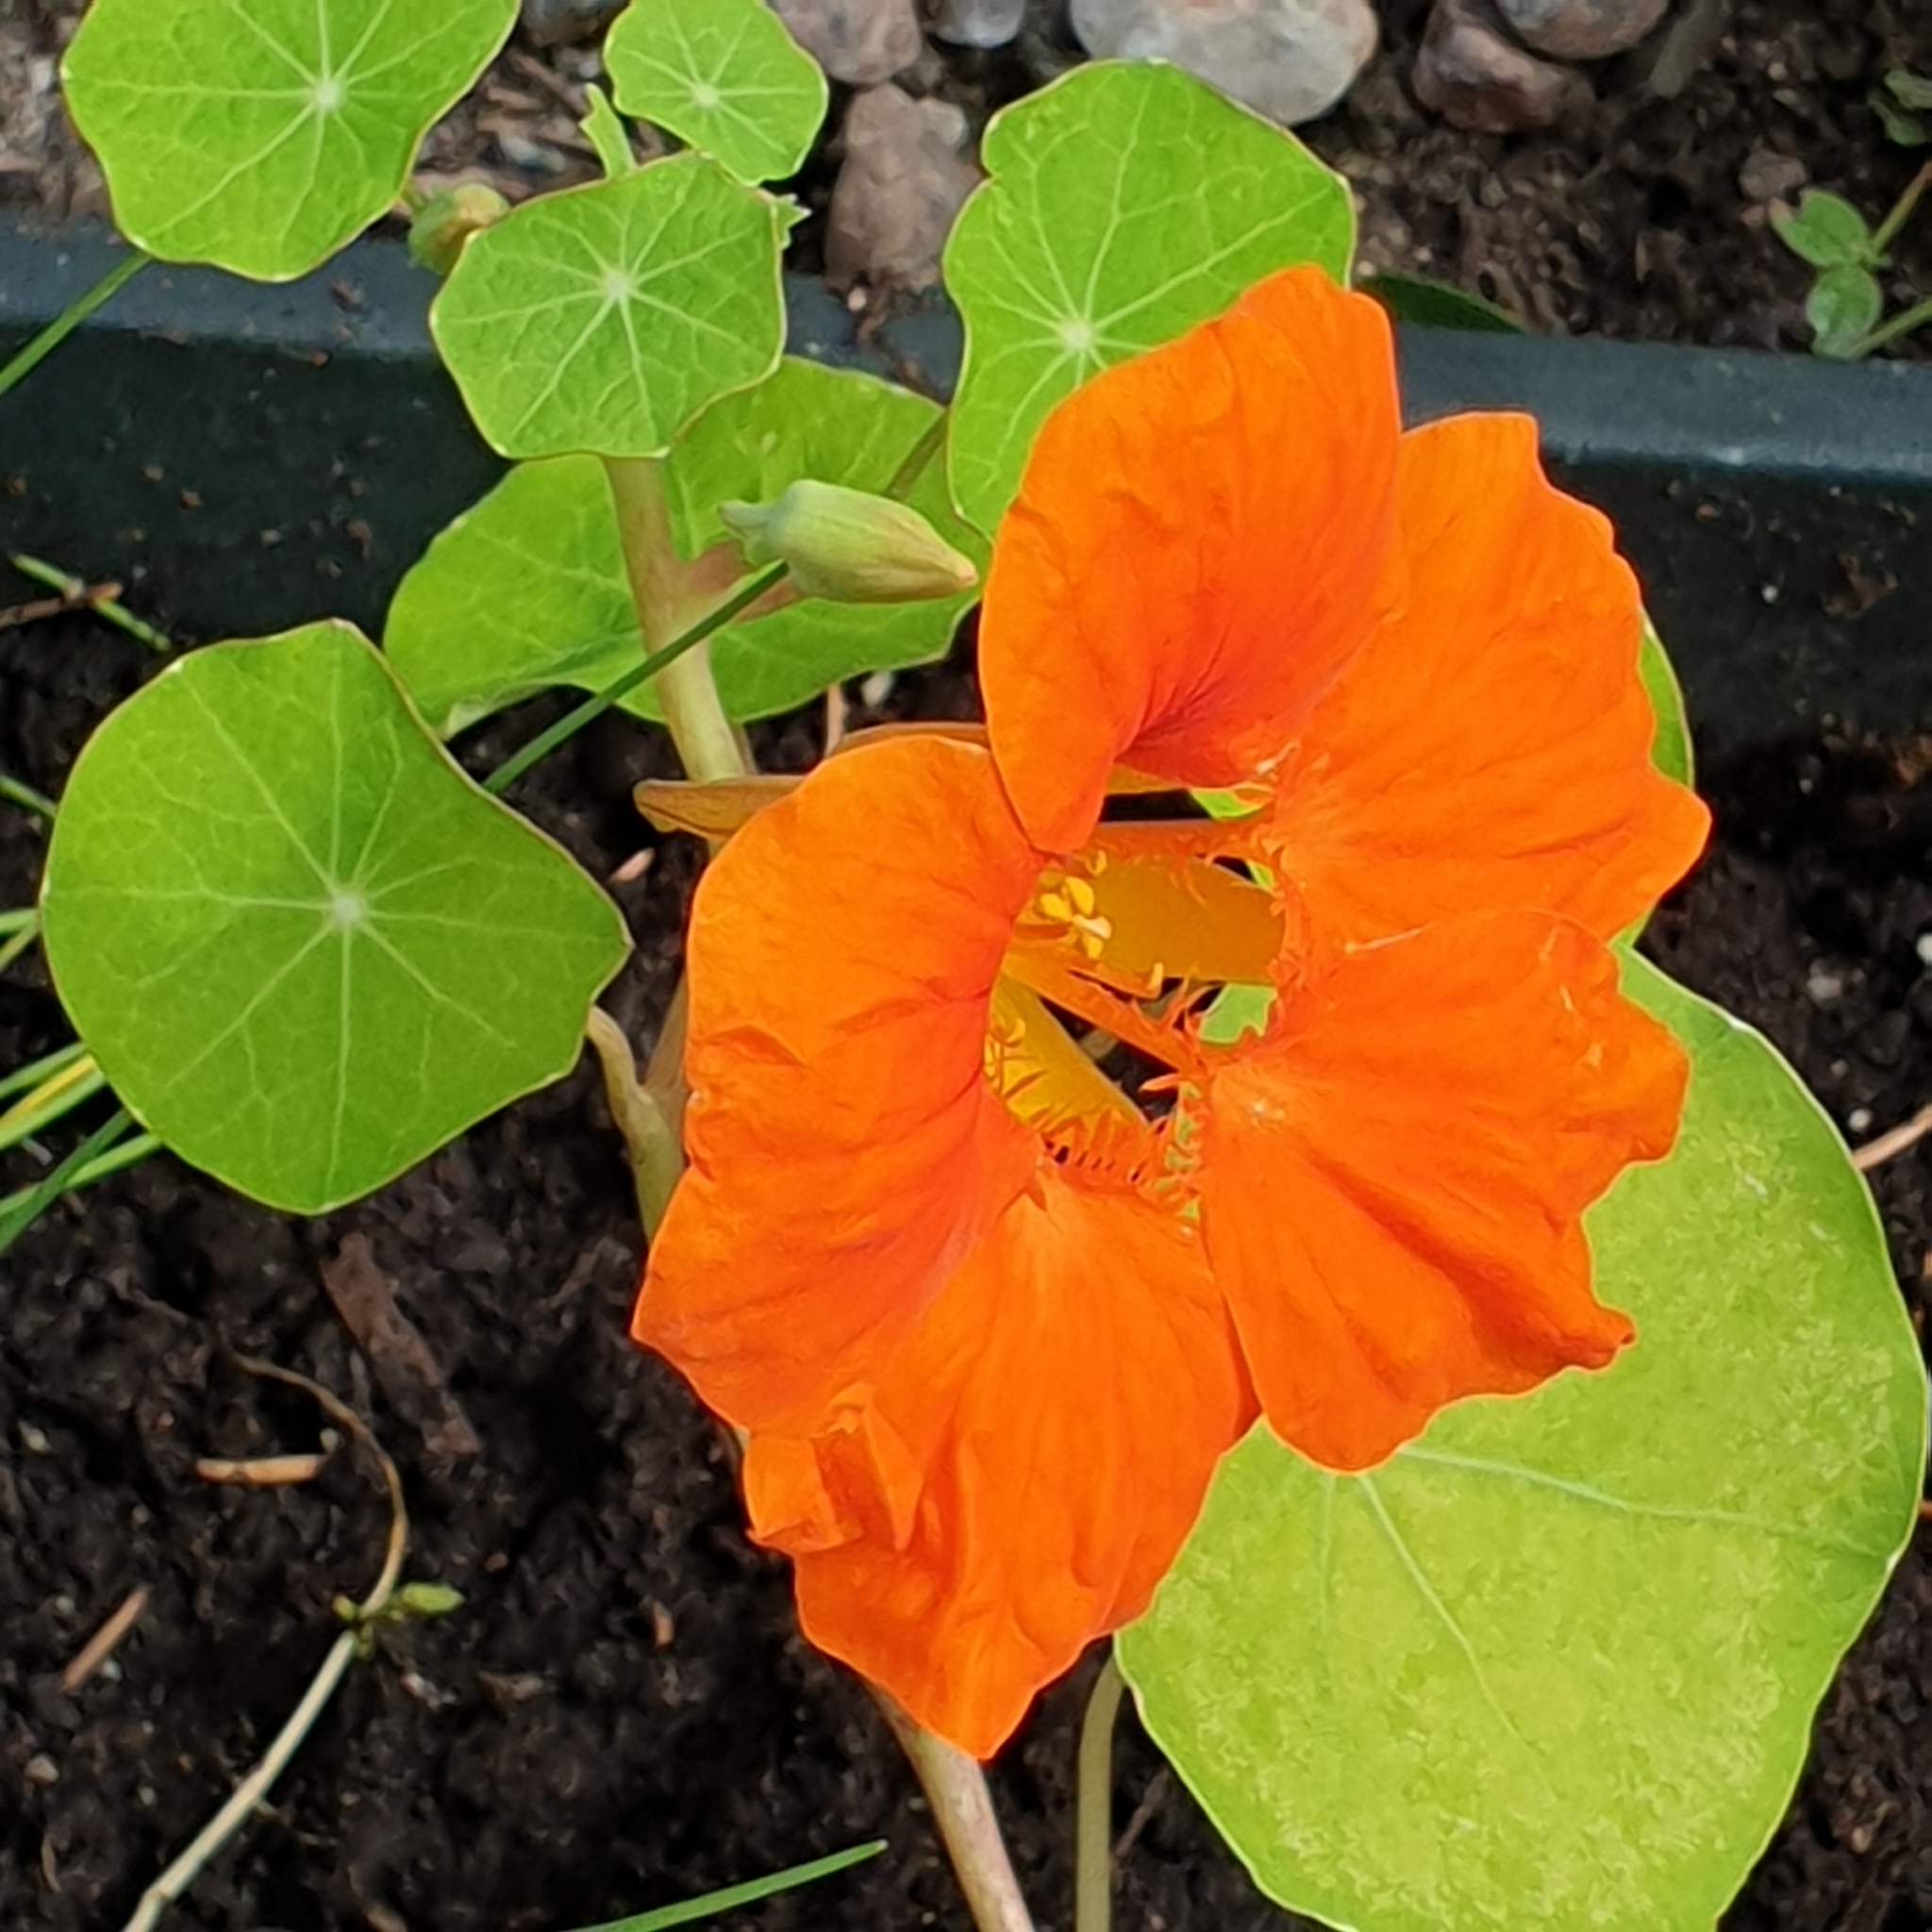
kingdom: Plantae
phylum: Tracheophyta
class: Magnoliopsida
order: Brassicales
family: Tropaeolaceae
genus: Tropaeolum
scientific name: Tropaeolum majus
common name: Nasturtium
